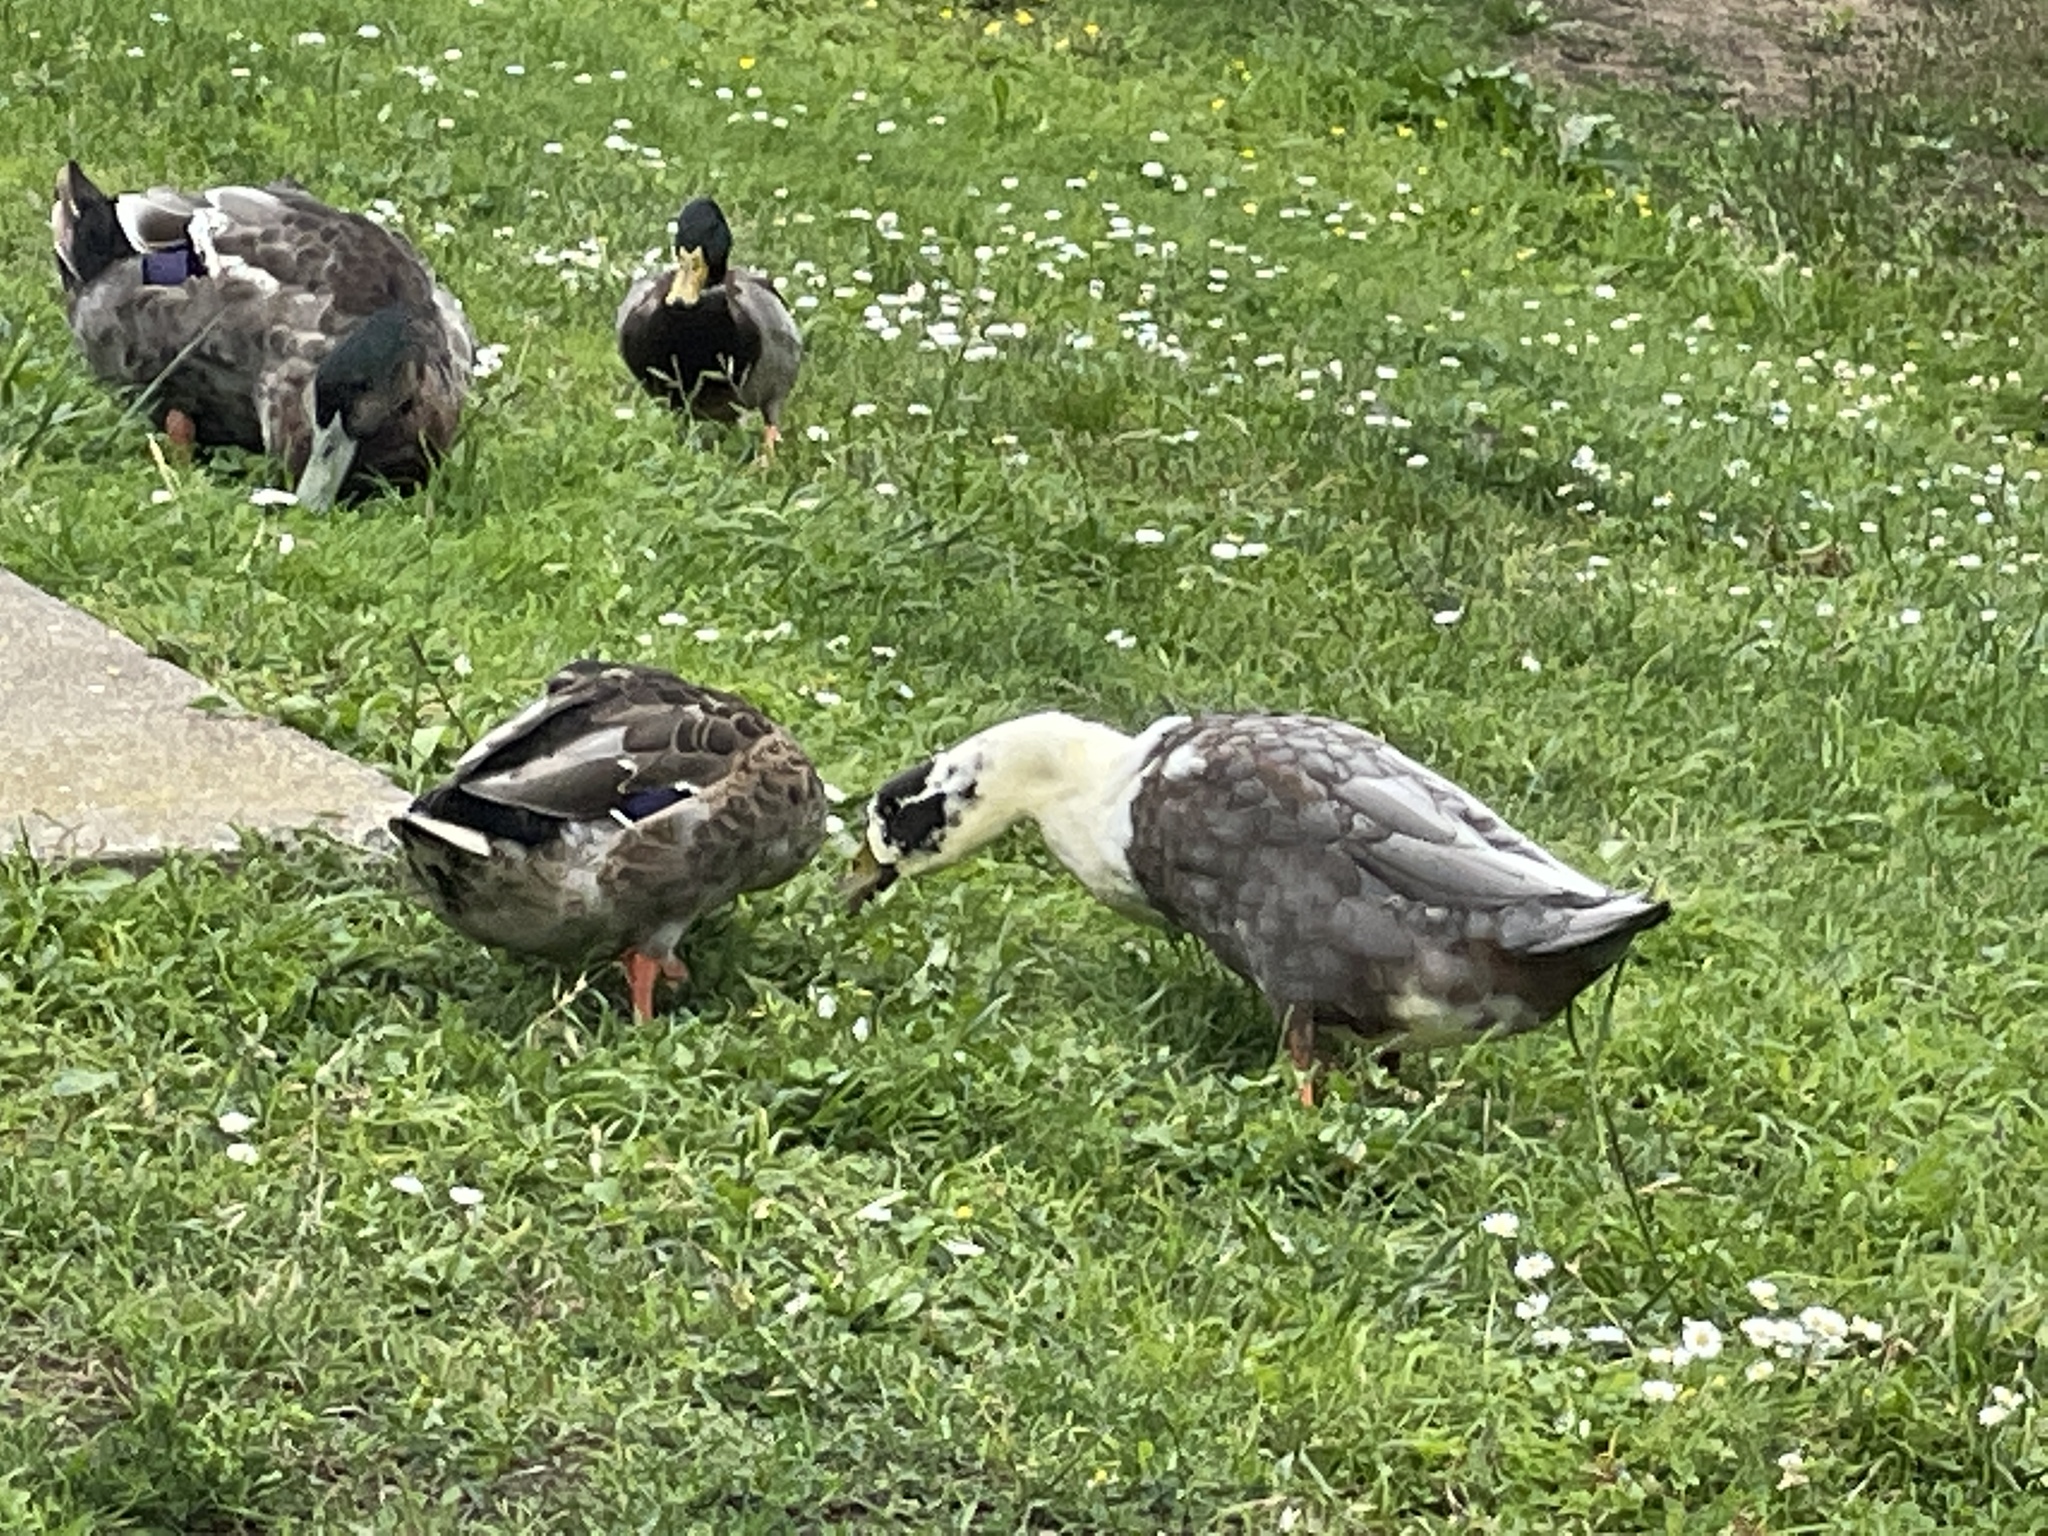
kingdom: Animalia
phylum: Chordata
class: Aves
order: Anseriformes
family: Anatidae
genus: Anas
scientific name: Anas platyrhynchos
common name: Mallard
